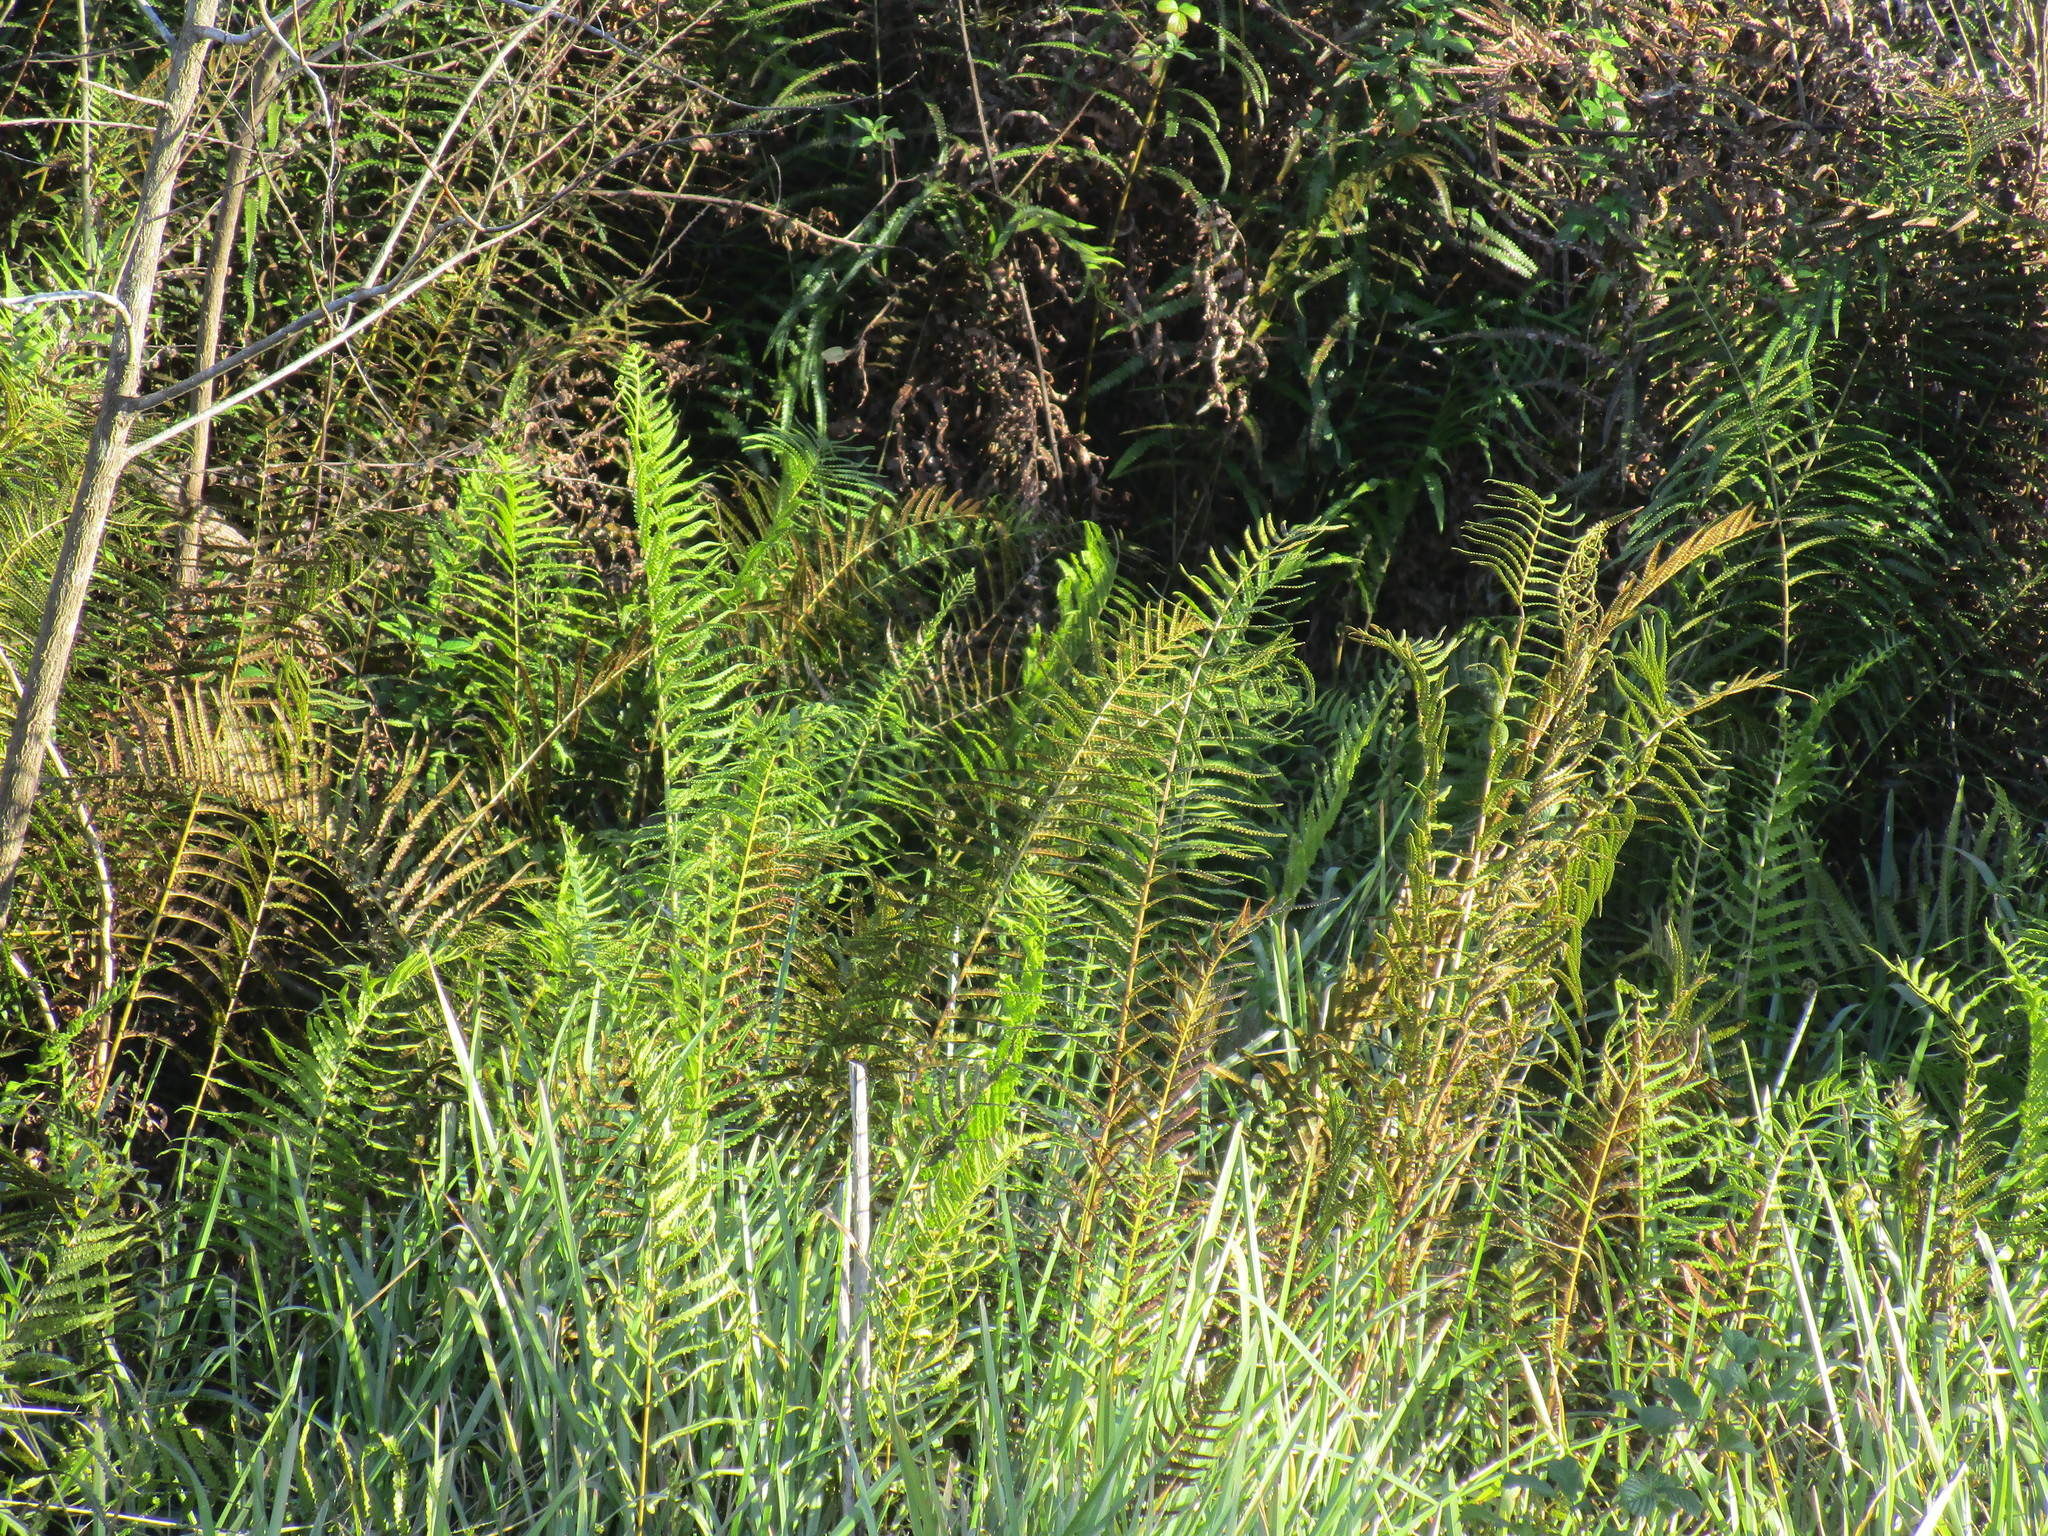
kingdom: Plantae
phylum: Tracheophyta
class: Polypodiopsida
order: Polypodiales
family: Thelypteridaceae
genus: Cyclosorus
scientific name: Cyclosorus interruptus
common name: Neke fern
